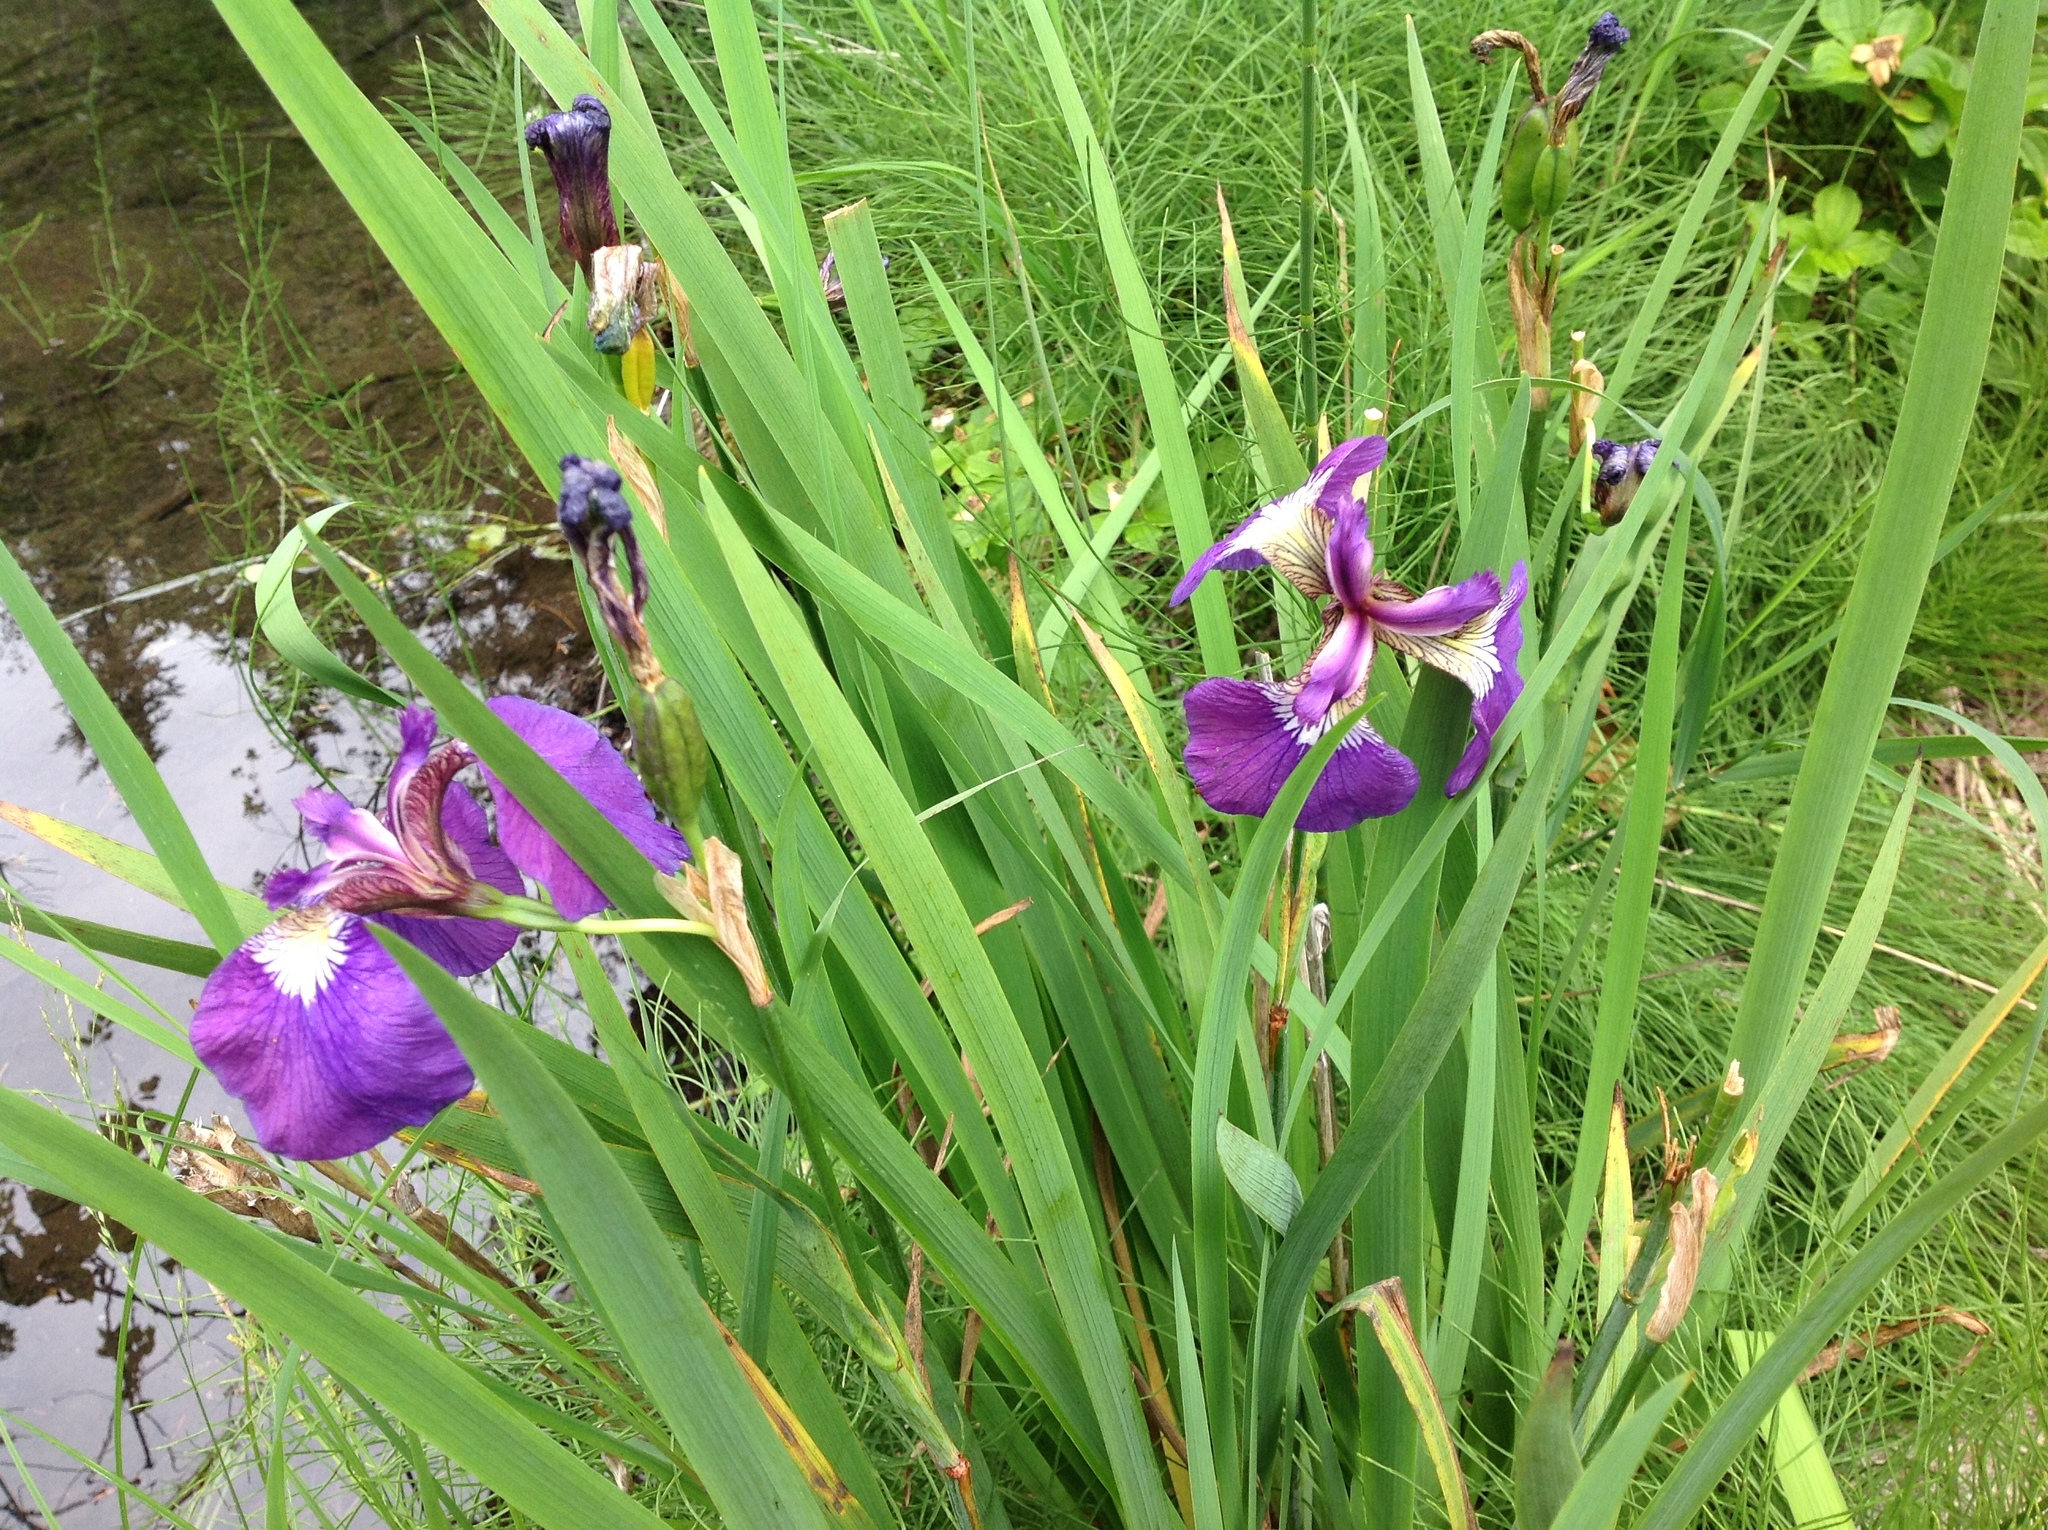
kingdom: Plantae
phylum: Tracheophyta
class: Liliopsida
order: Asparagales
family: Iridaceae
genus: Iris
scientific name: Iris setosa
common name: Arctic blue flag
